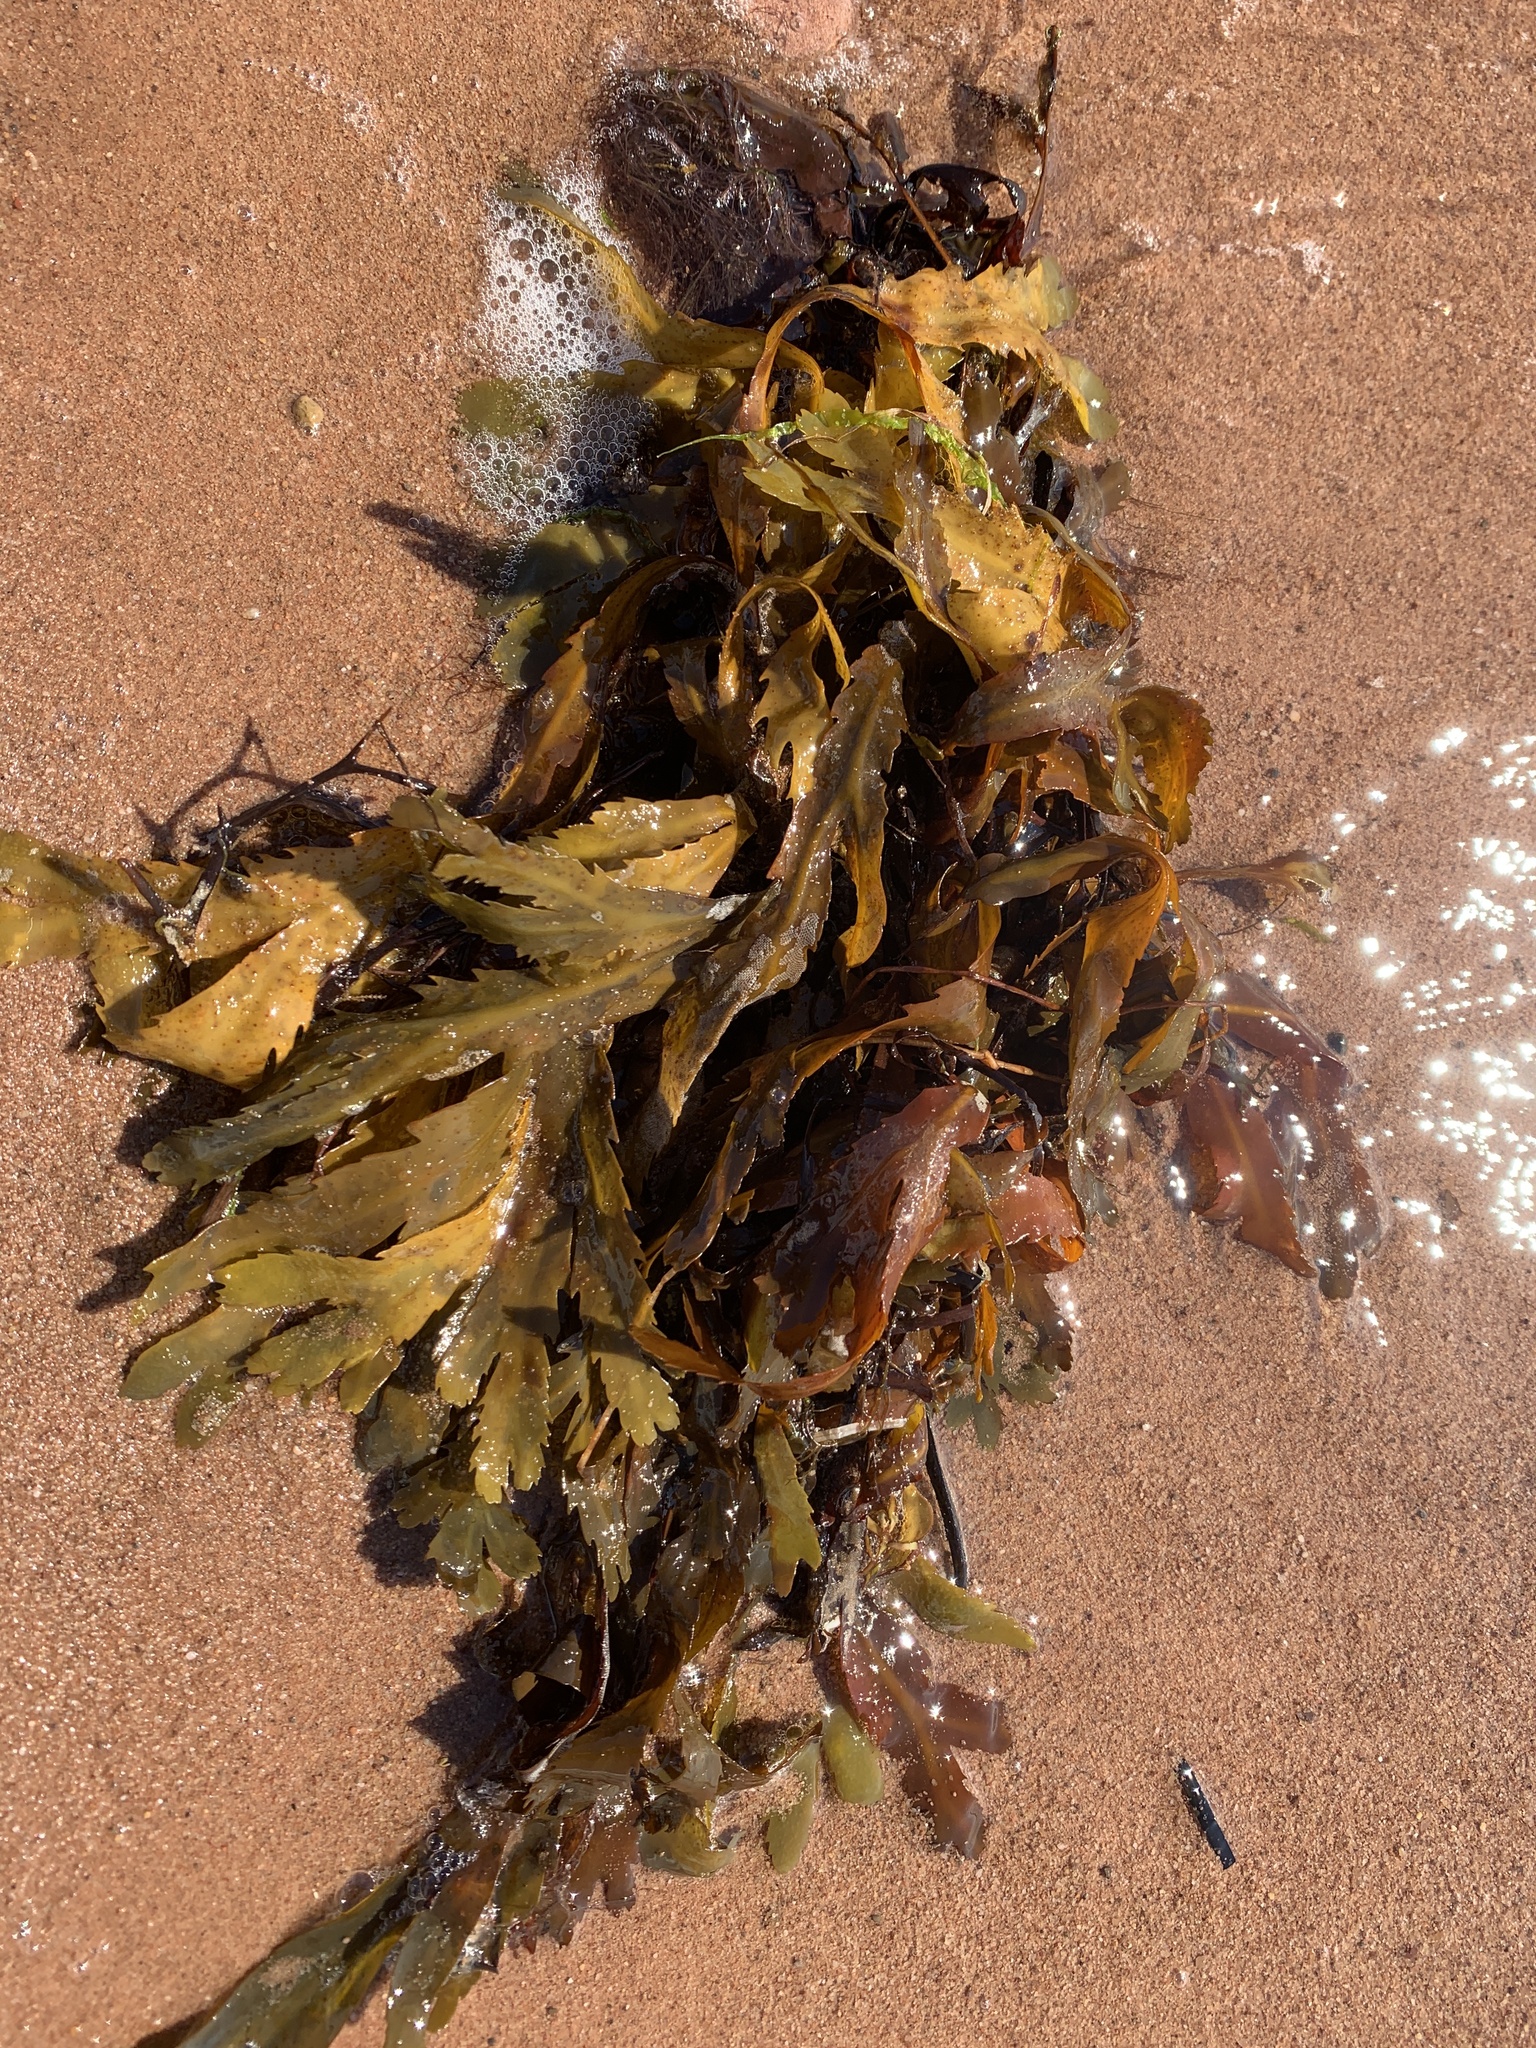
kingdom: Chromista
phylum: Ochrophyta
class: Phaeophyceae
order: Fucales
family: Fucaceae
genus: Fucus
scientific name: Fucus serratus
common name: Toothed wrack
